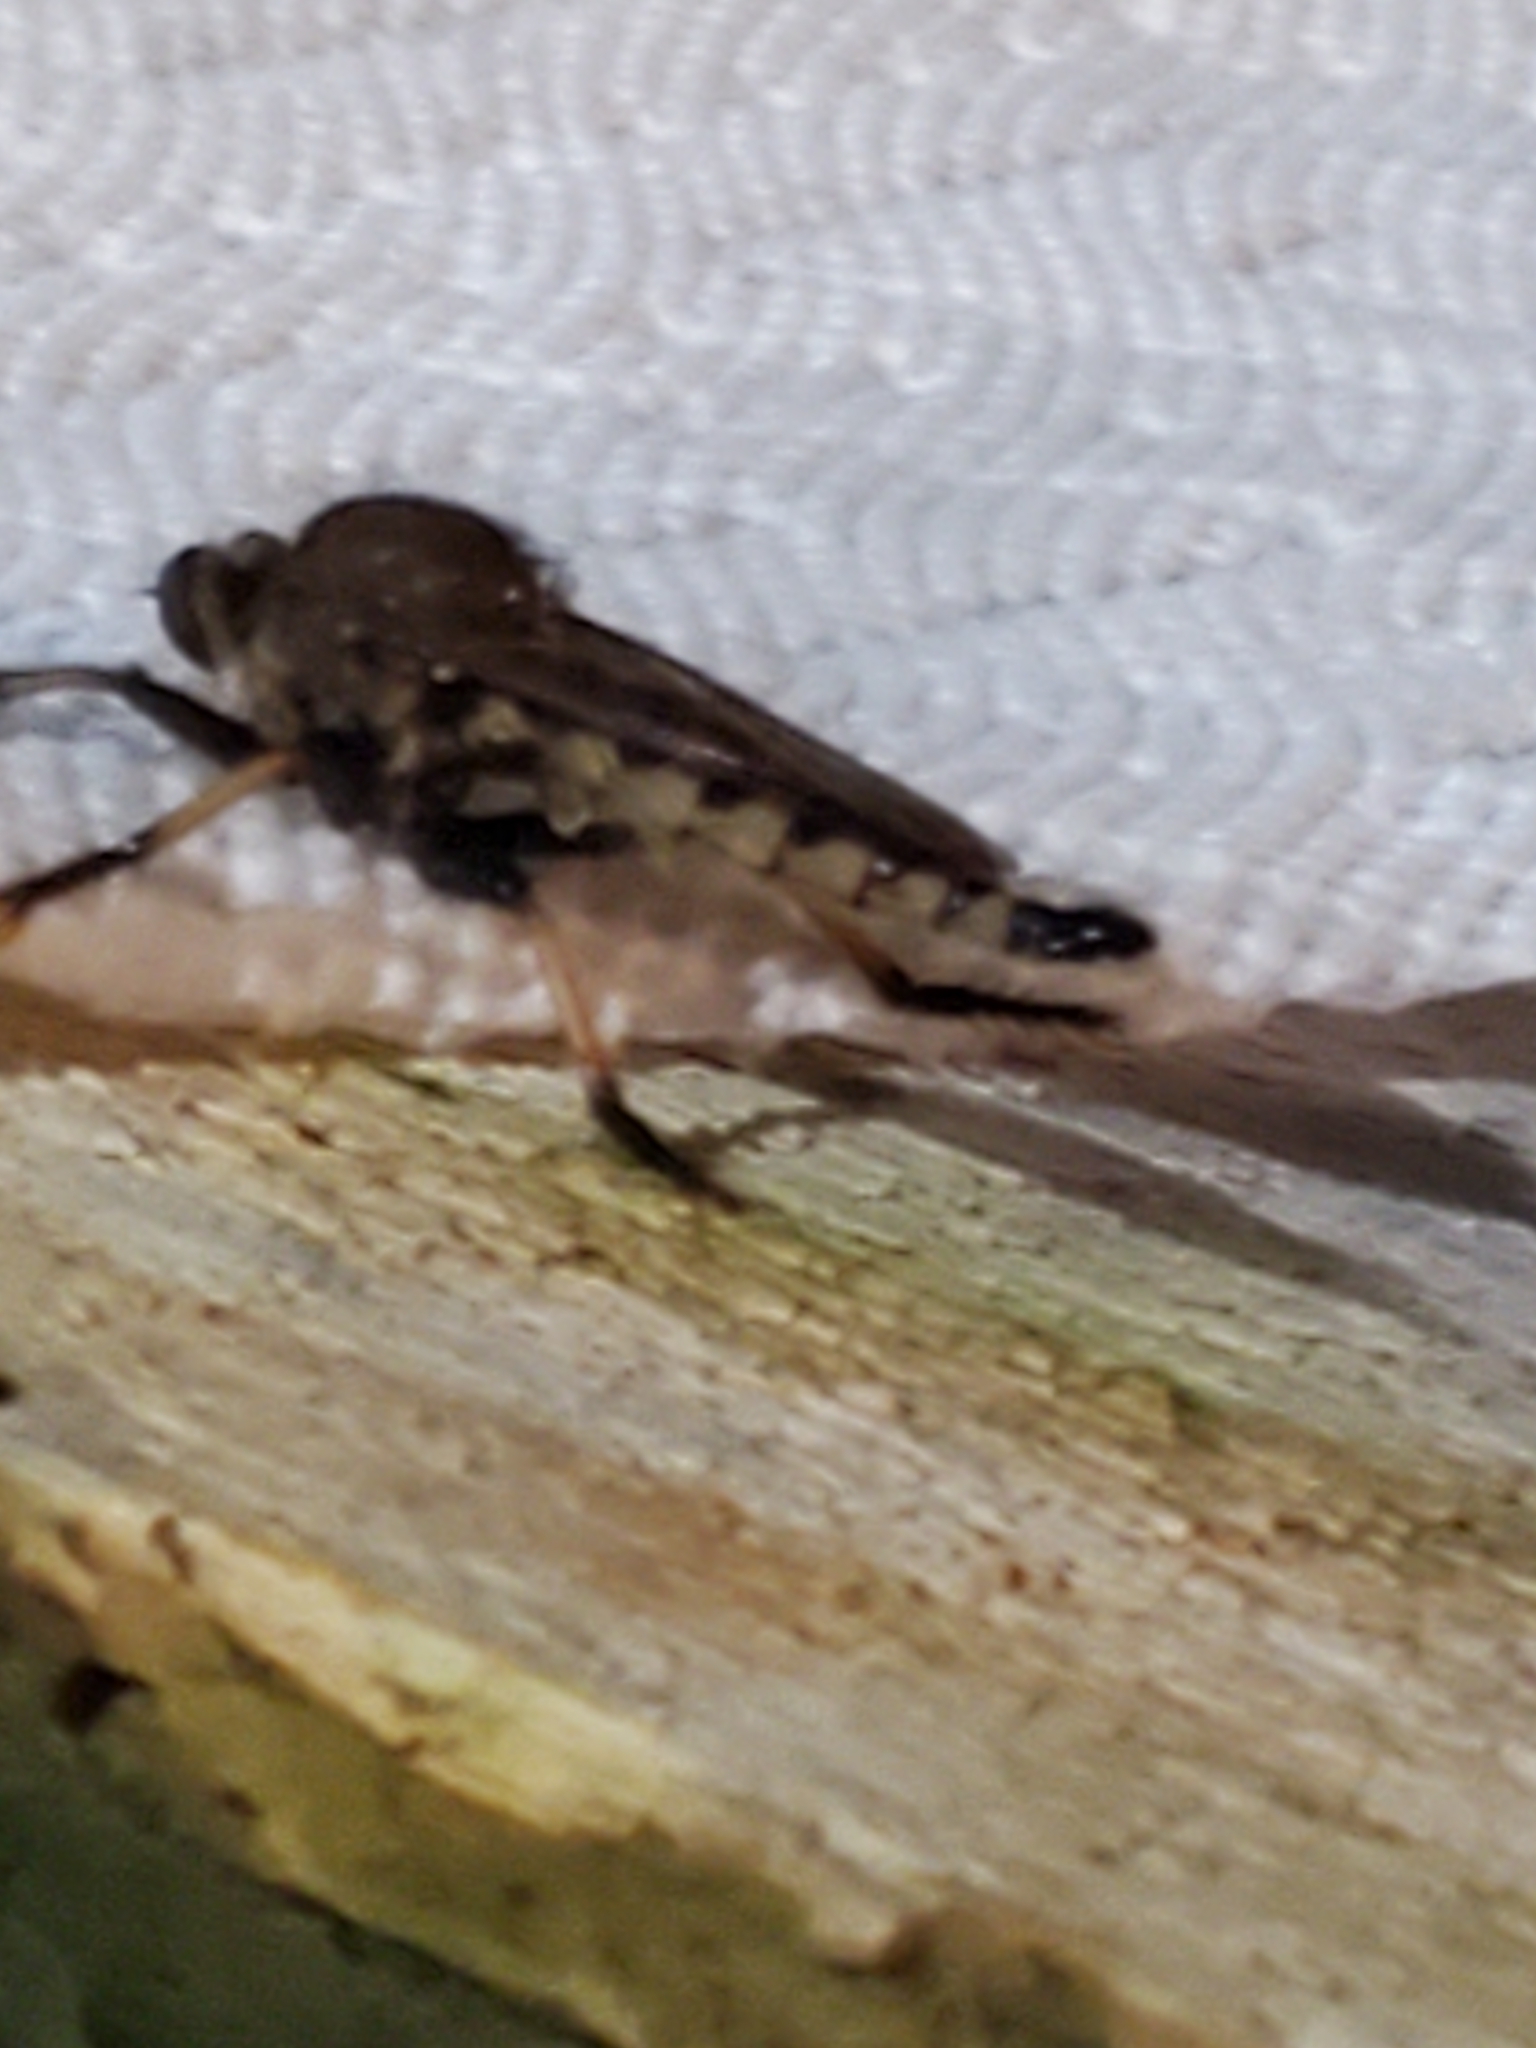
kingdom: Animalia
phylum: Arthropoda
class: Insecta
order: Diptera
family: Asilidae
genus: Promachus
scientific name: Promachus rufipes
